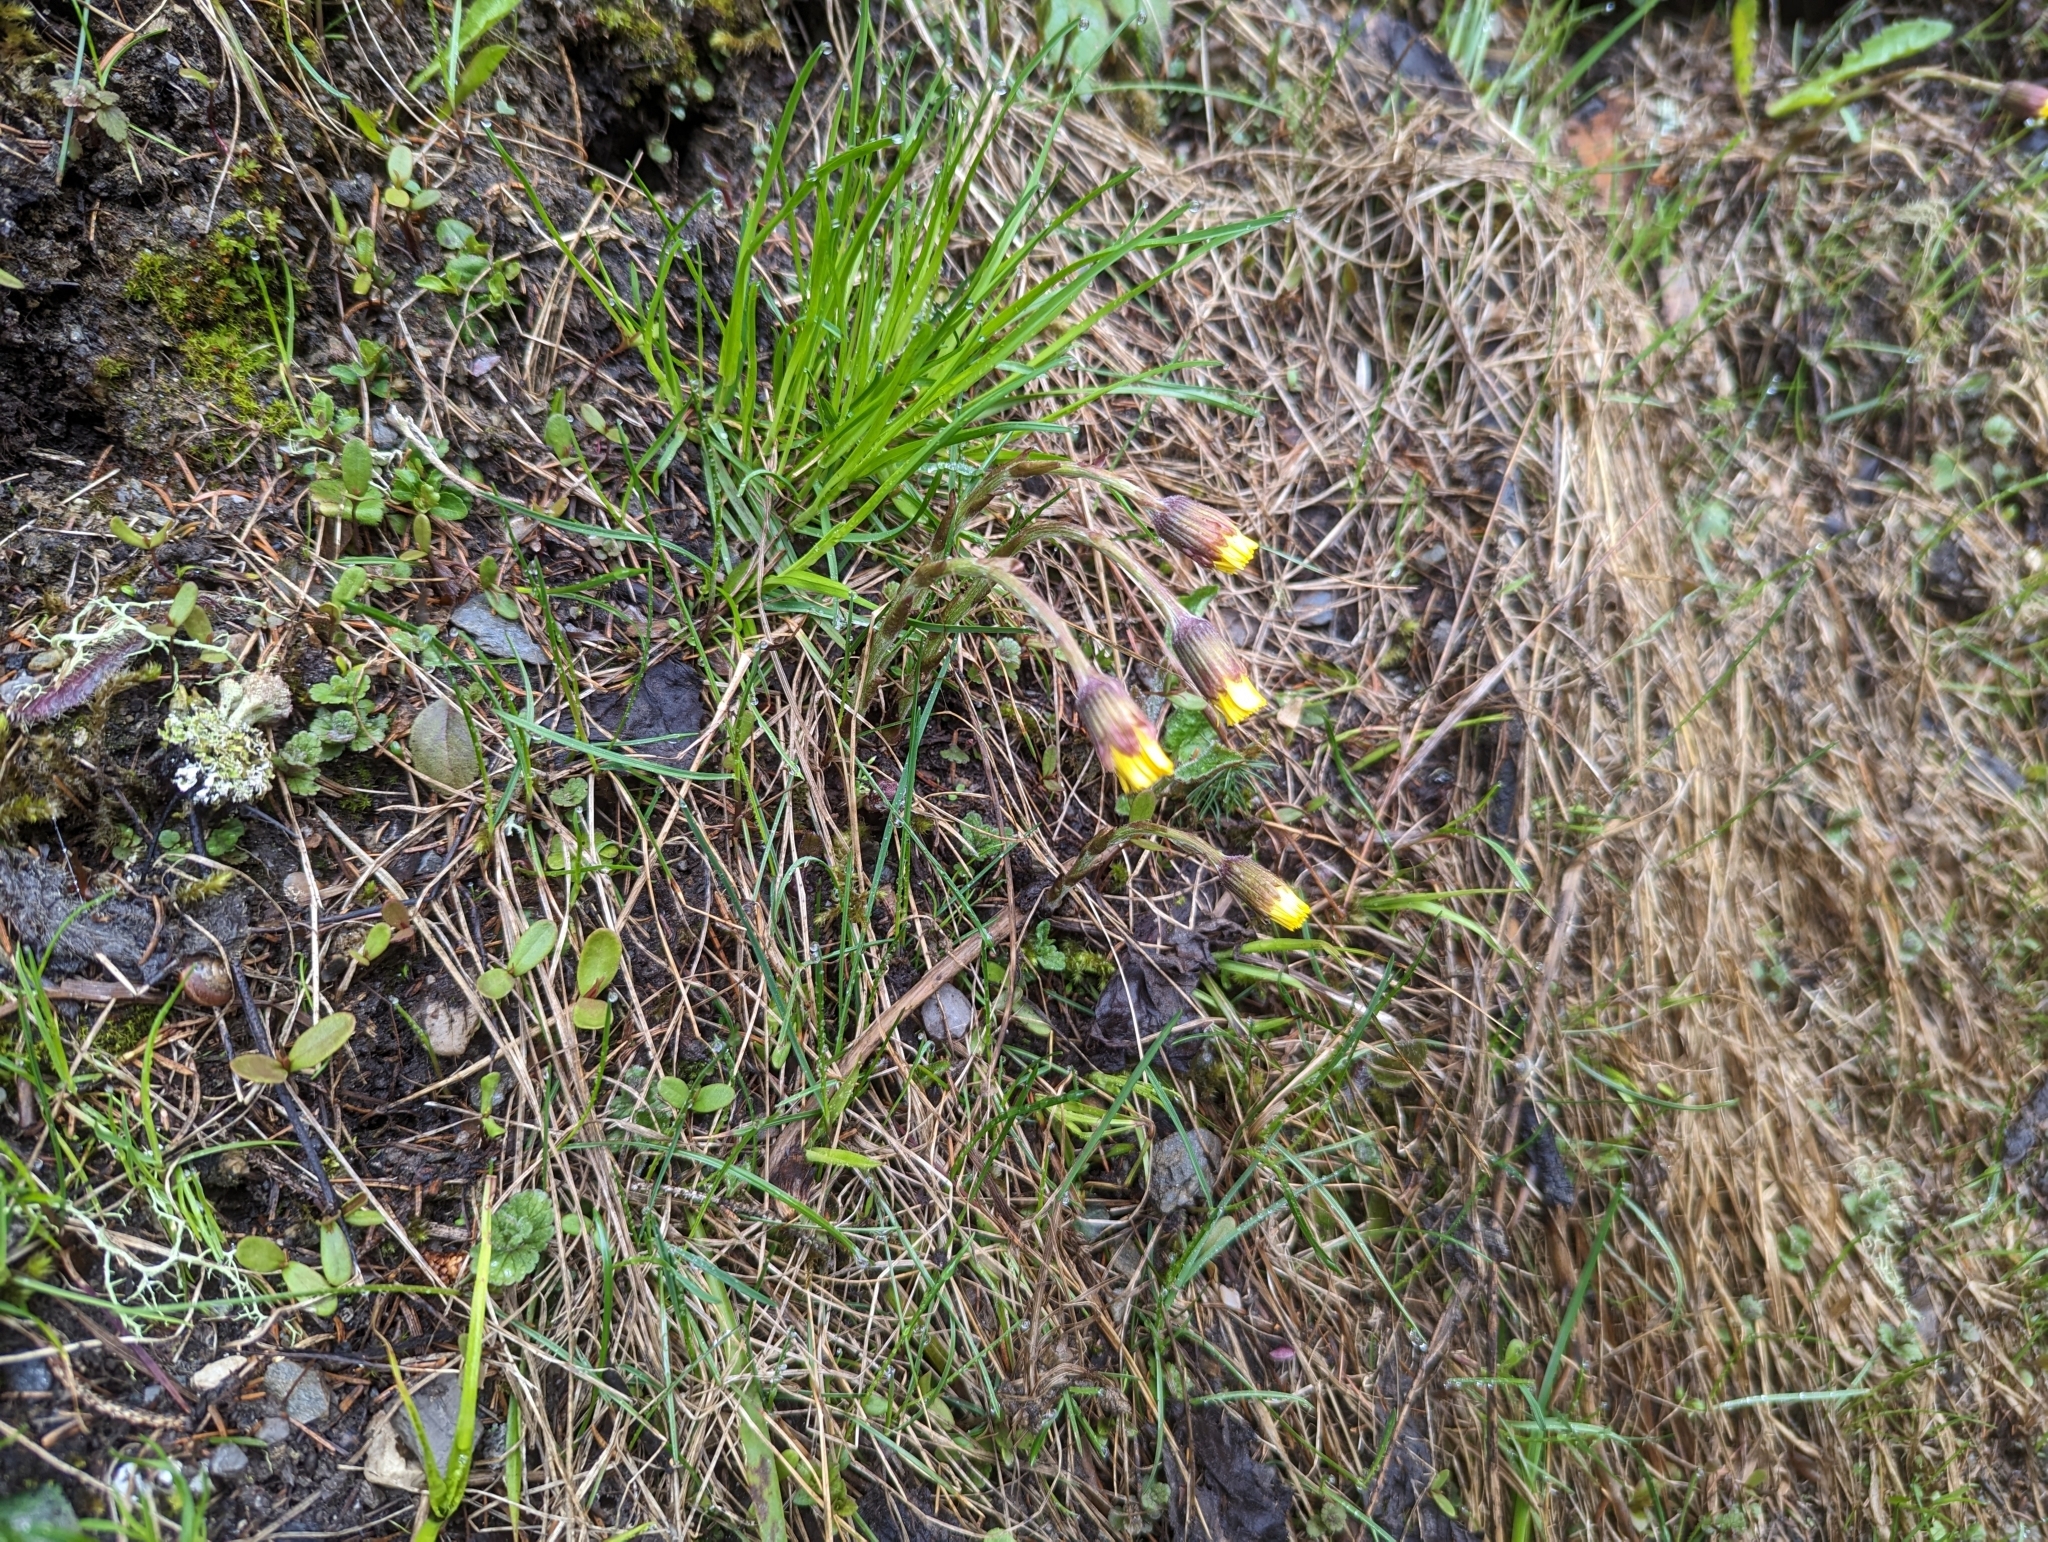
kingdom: Plantae
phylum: Tracheophyta
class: Magnoliopsida
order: Asterales
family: Asteraceae
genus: Tussilago
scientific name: Tussilago farfara
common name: Coltsfoot
